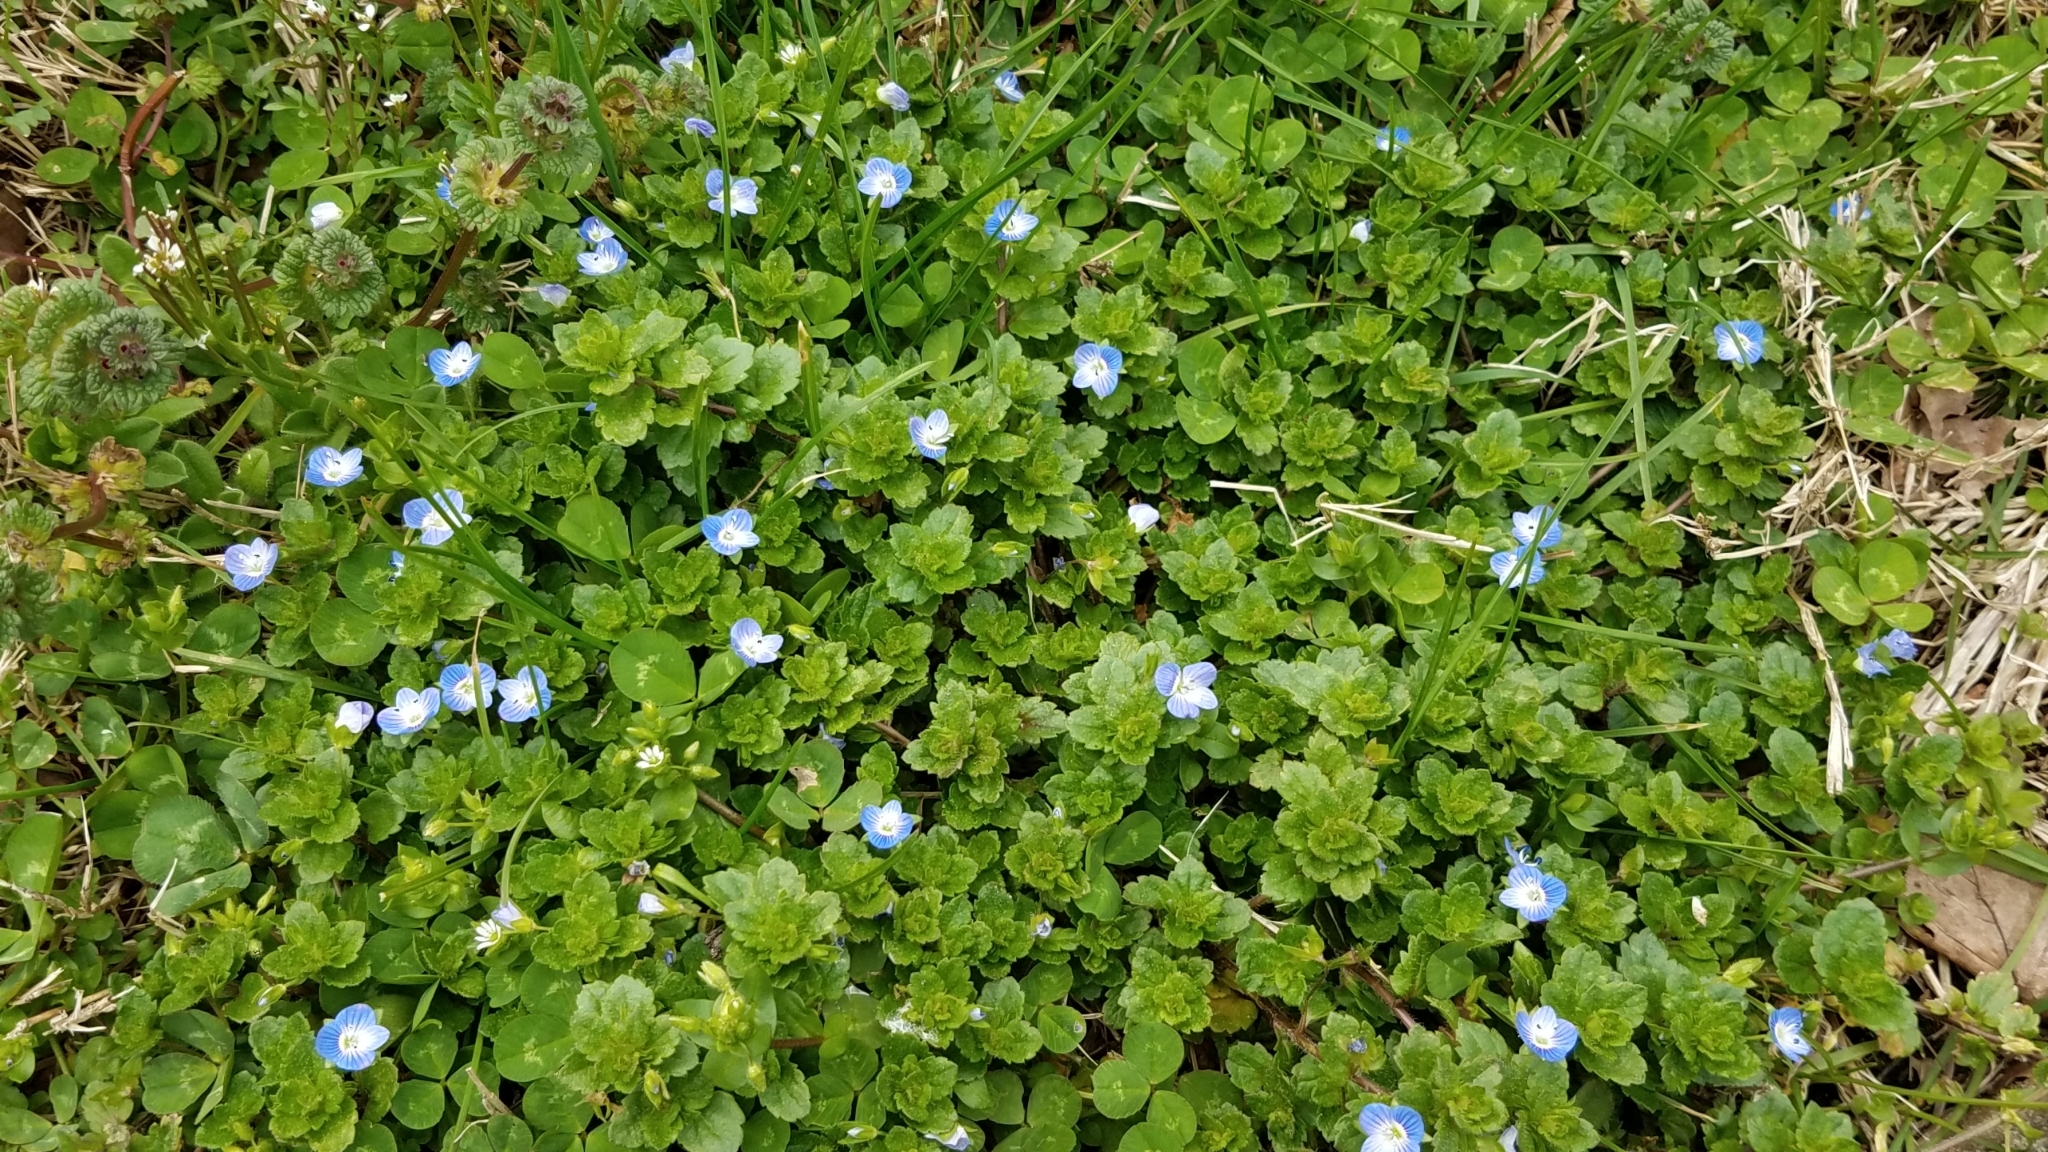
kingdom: Plantae
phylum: Tracheophyta
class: Magnoliopsida
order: Lamiales
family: Plantaginaceae
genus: Veronica
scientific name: Veronica persica
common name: Common field-speedwell
